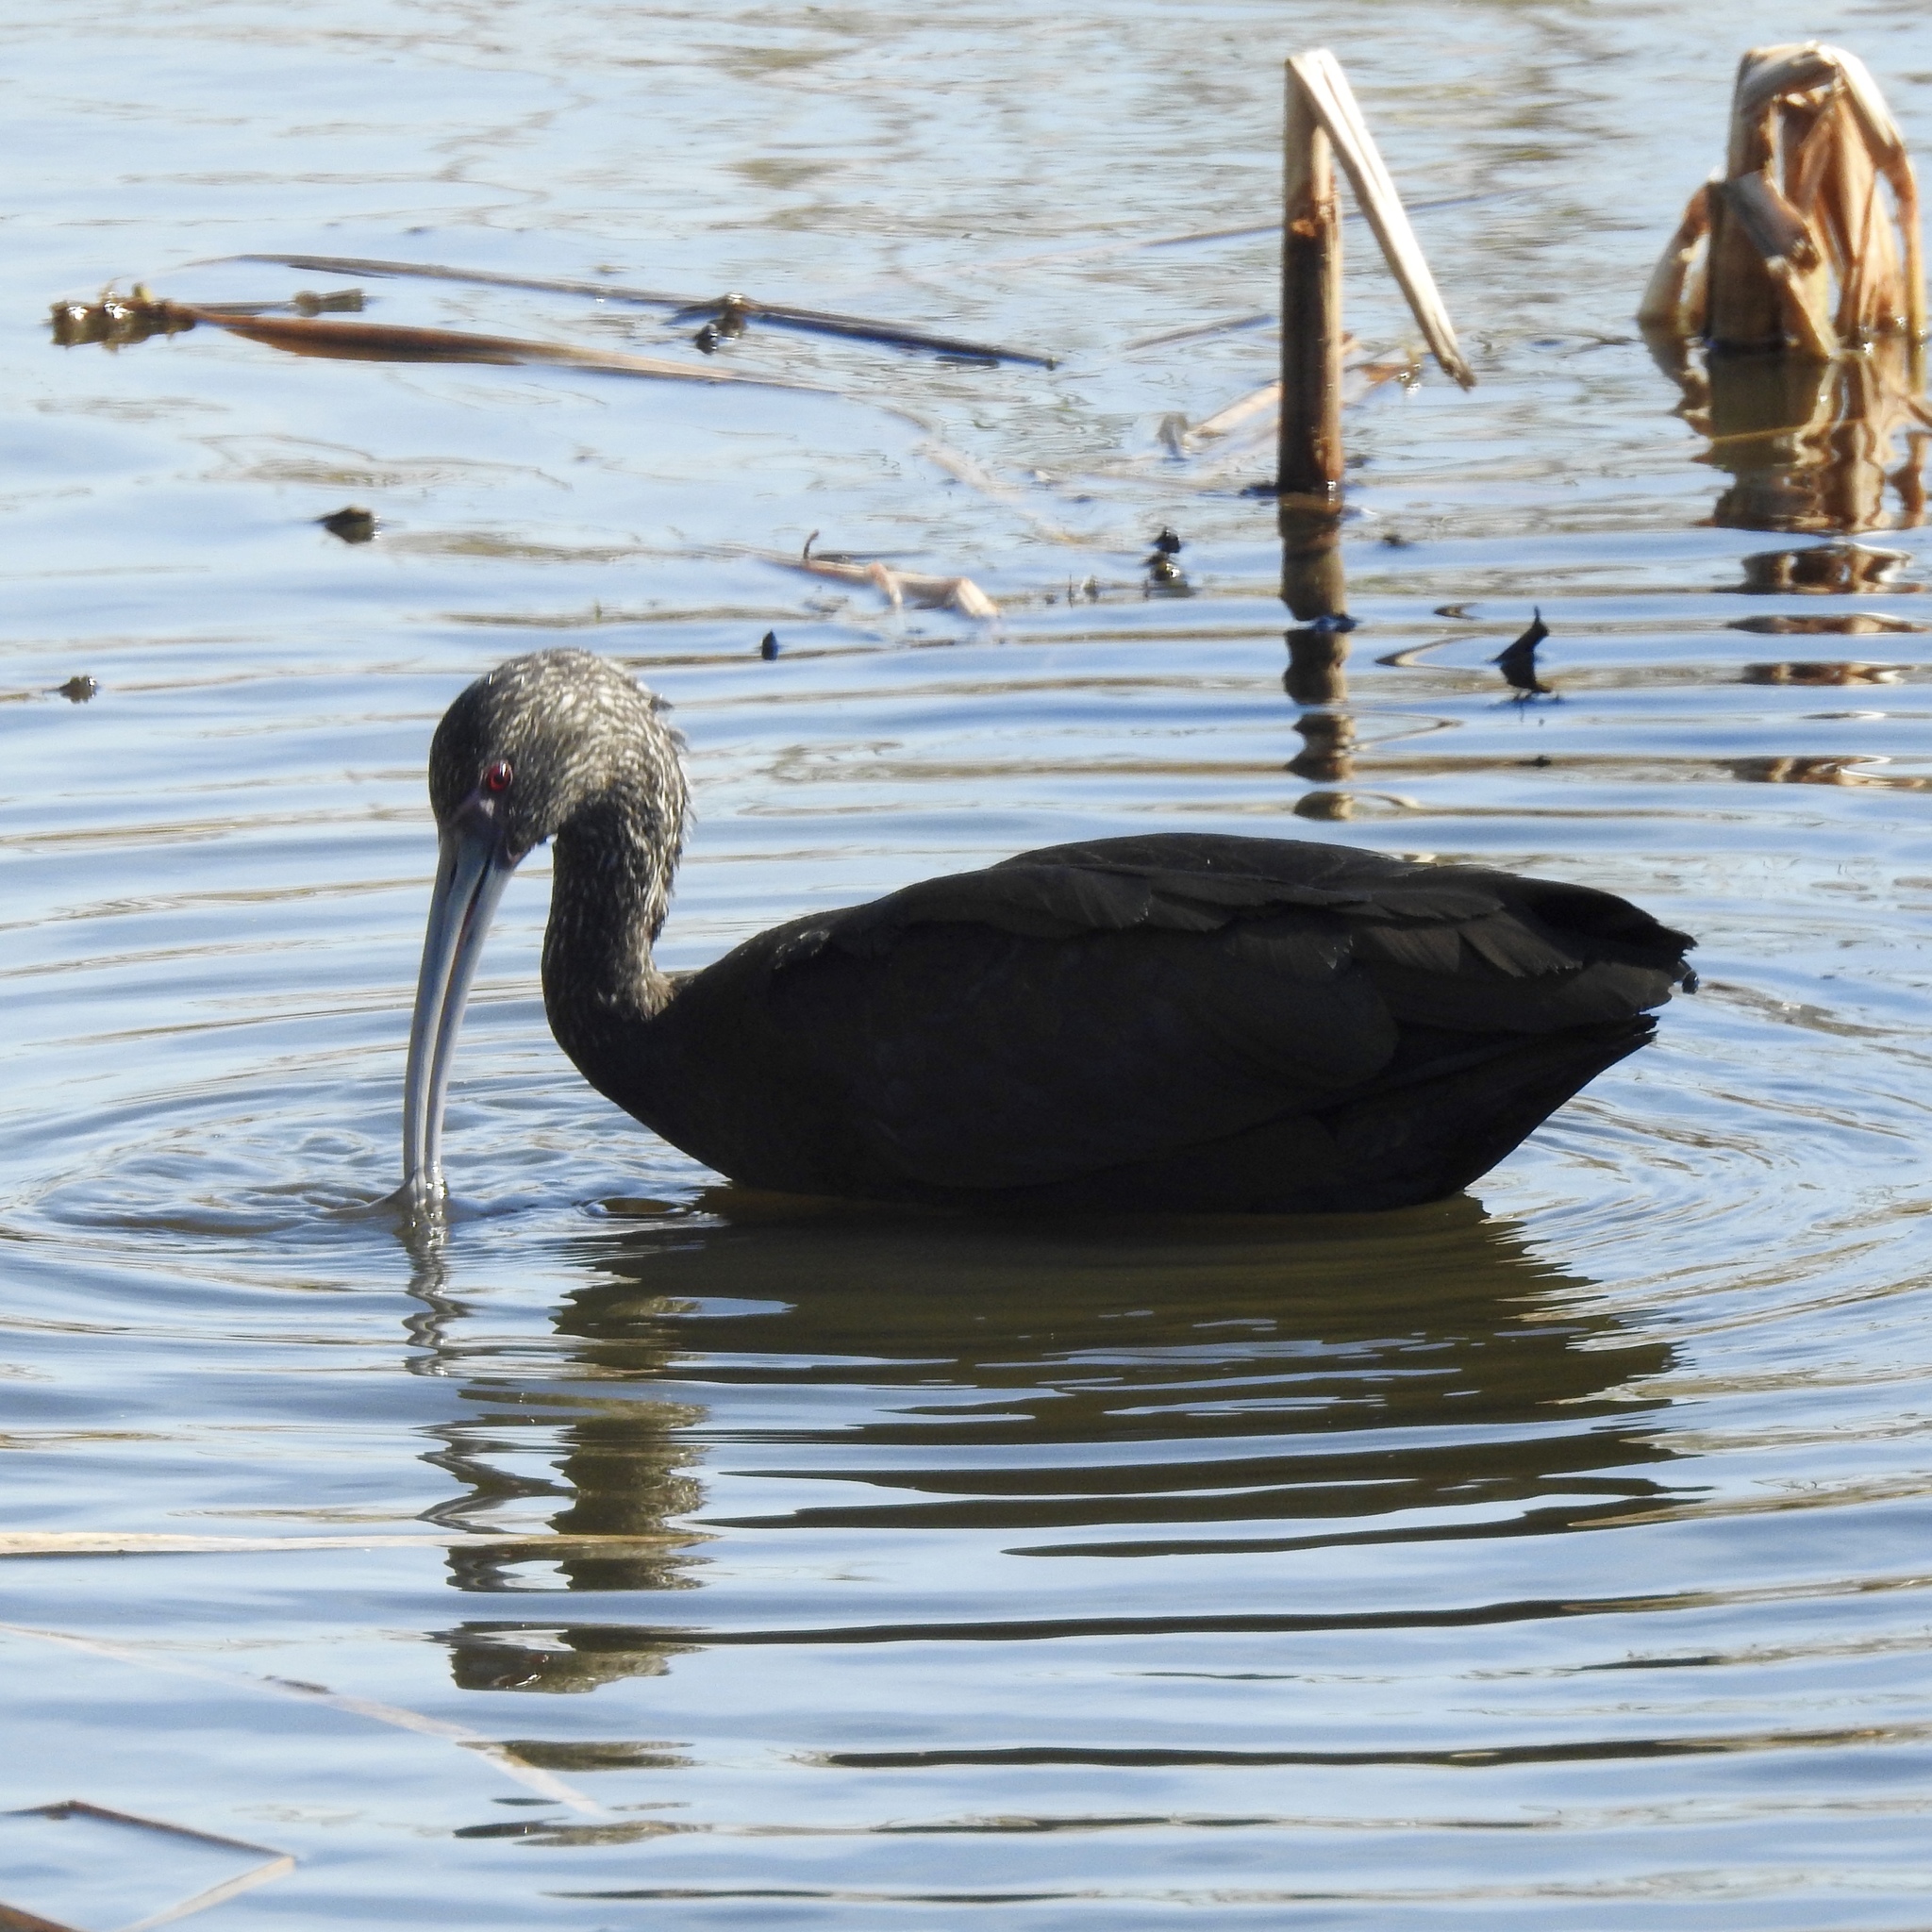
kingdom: Animalia
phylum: Chordata
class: Aves
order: Pelecaniformes
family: Threskiornithidae
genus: Plegadis
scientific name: Plegadis chihi
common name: White-faced ibis
